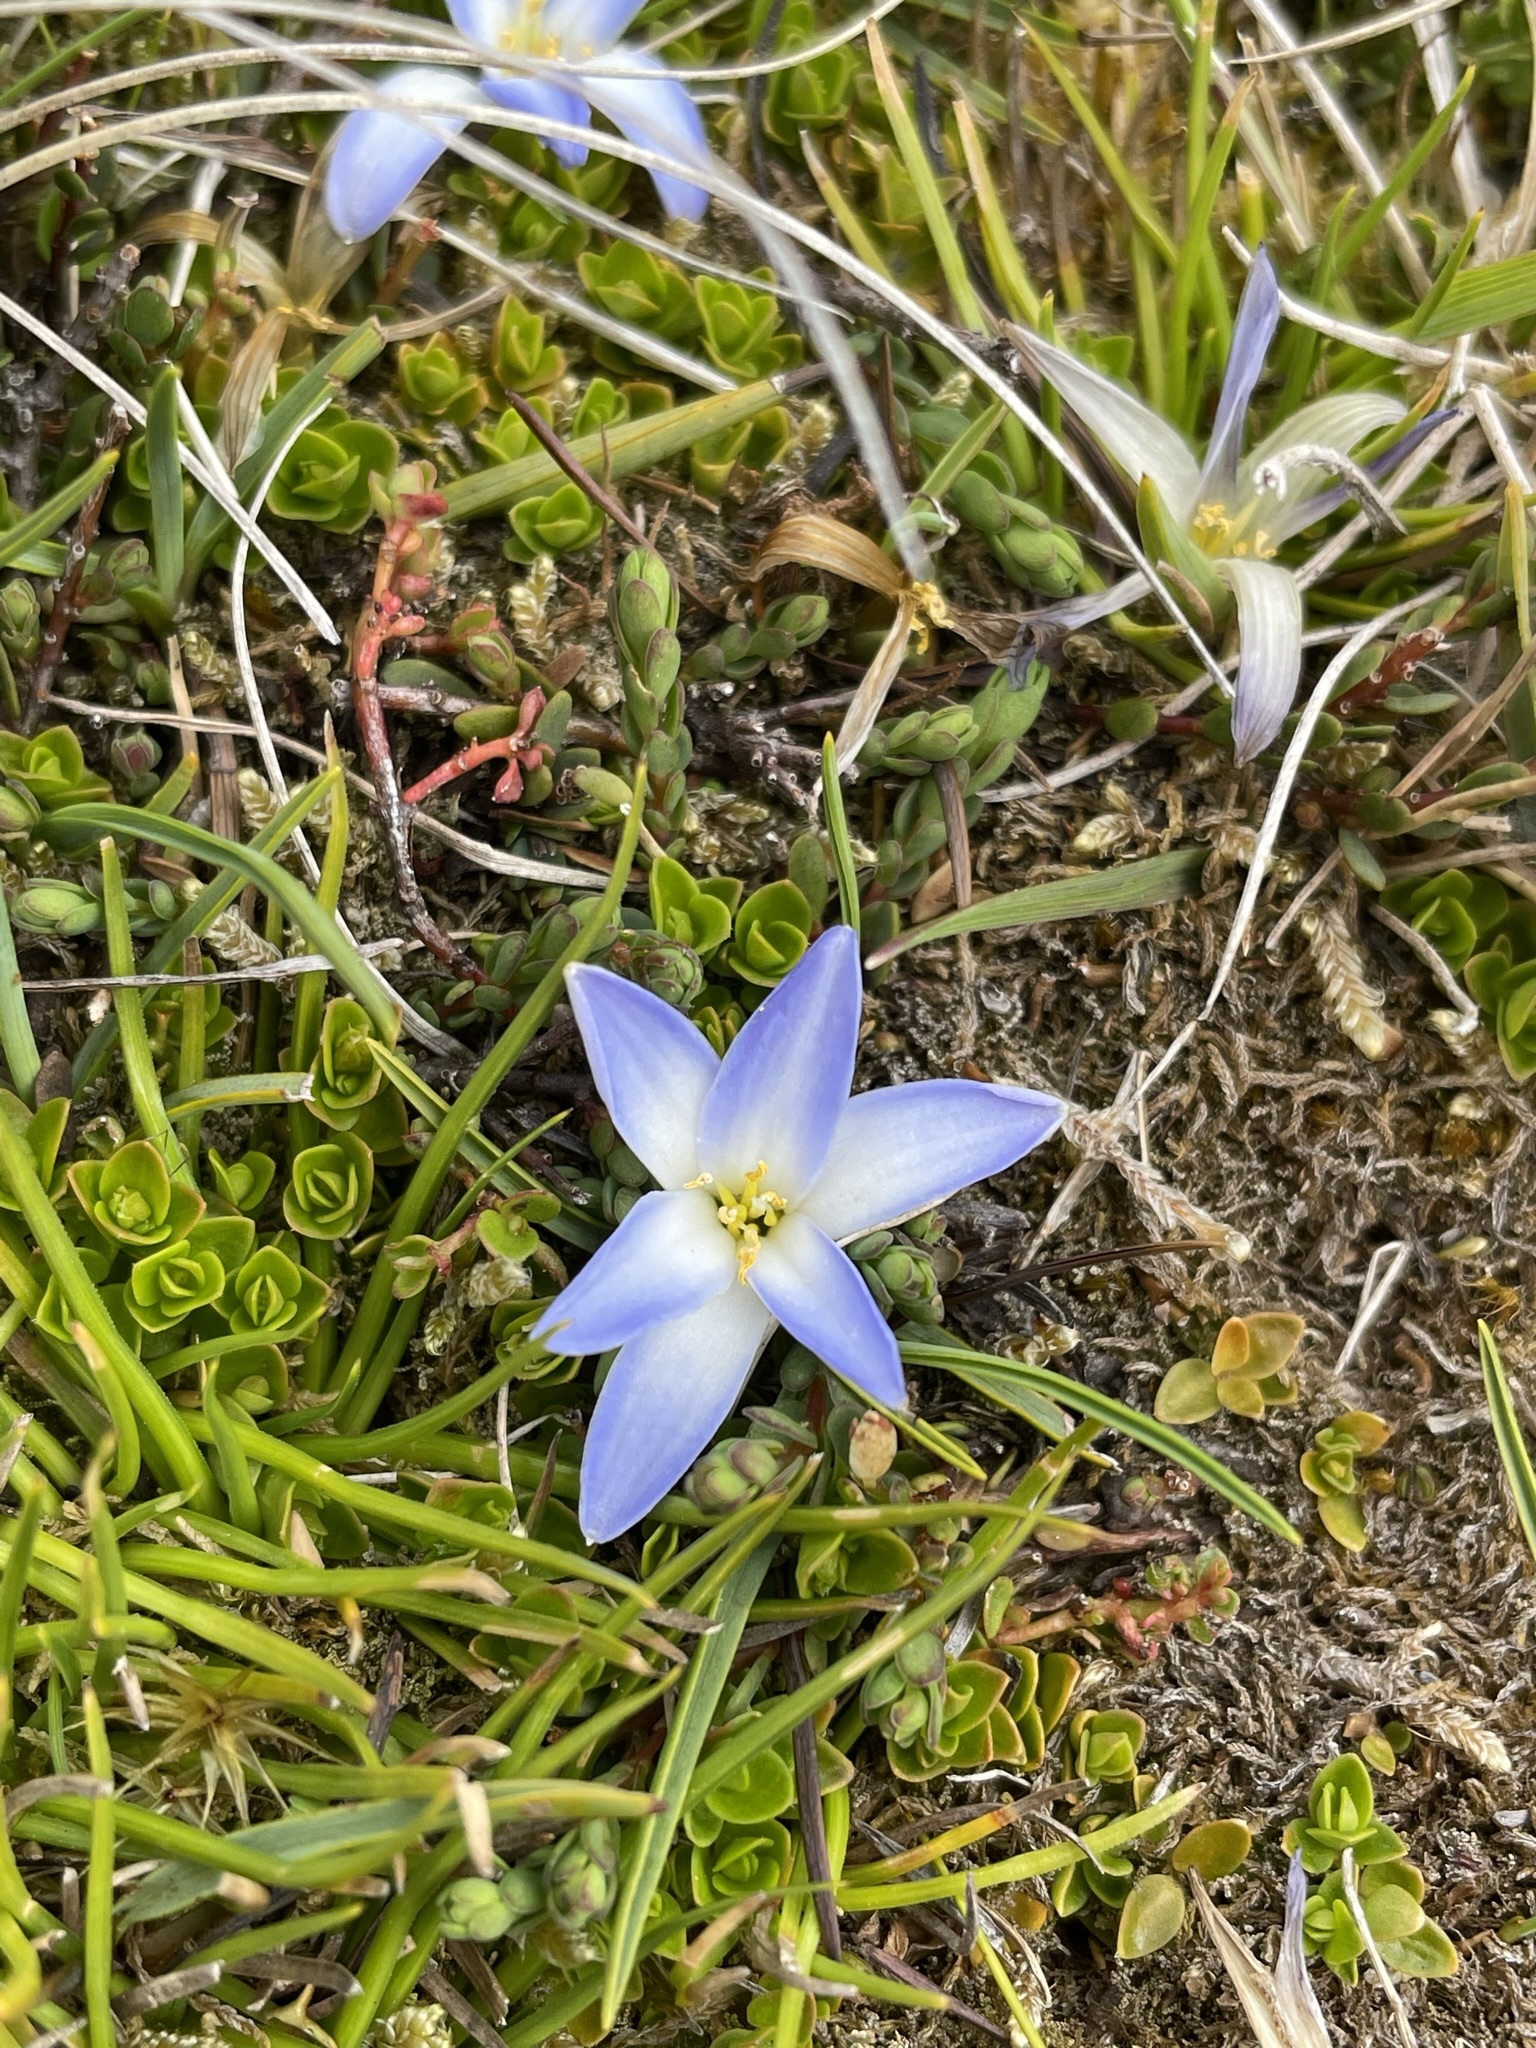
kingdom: Plantae
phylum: Tracheophyta
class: Liliopsida
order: Asparagales
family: Asphodelaceae
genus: Herpolirion
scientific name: Herpolirion novae-zelandiae
